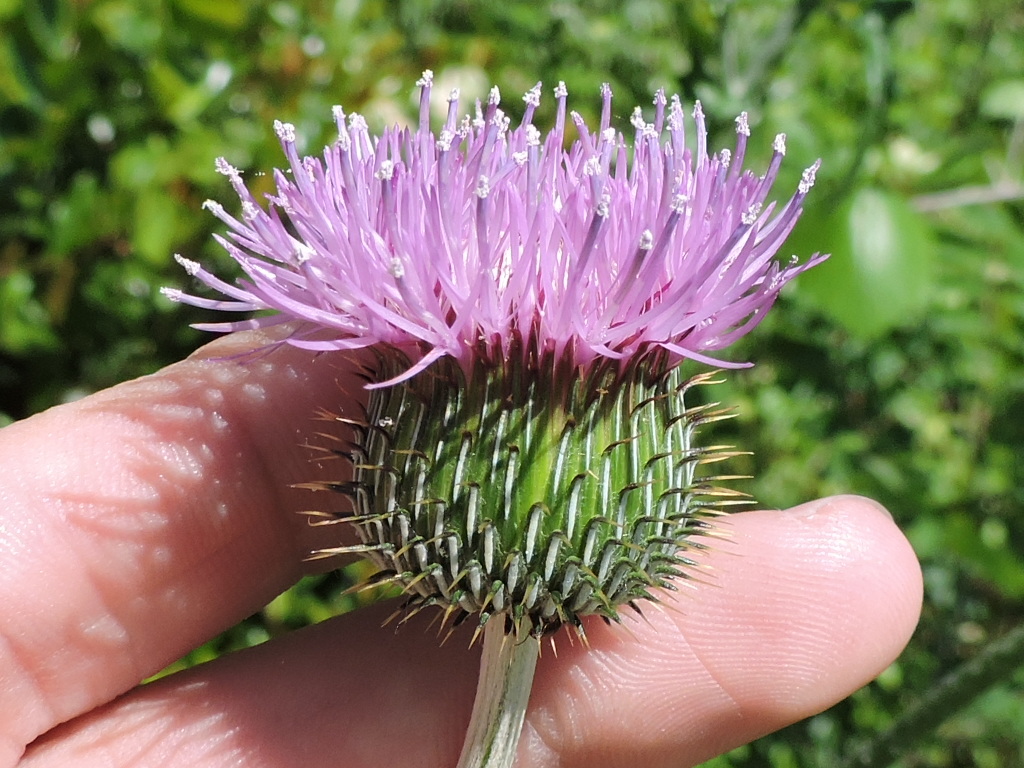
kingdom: Plantae
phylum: Tracheophyta
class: Magnoliopsida
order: Asterales
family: Asteraceae
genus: Cirsium
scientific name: Cirsium texanum
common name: Texas purple thistle
